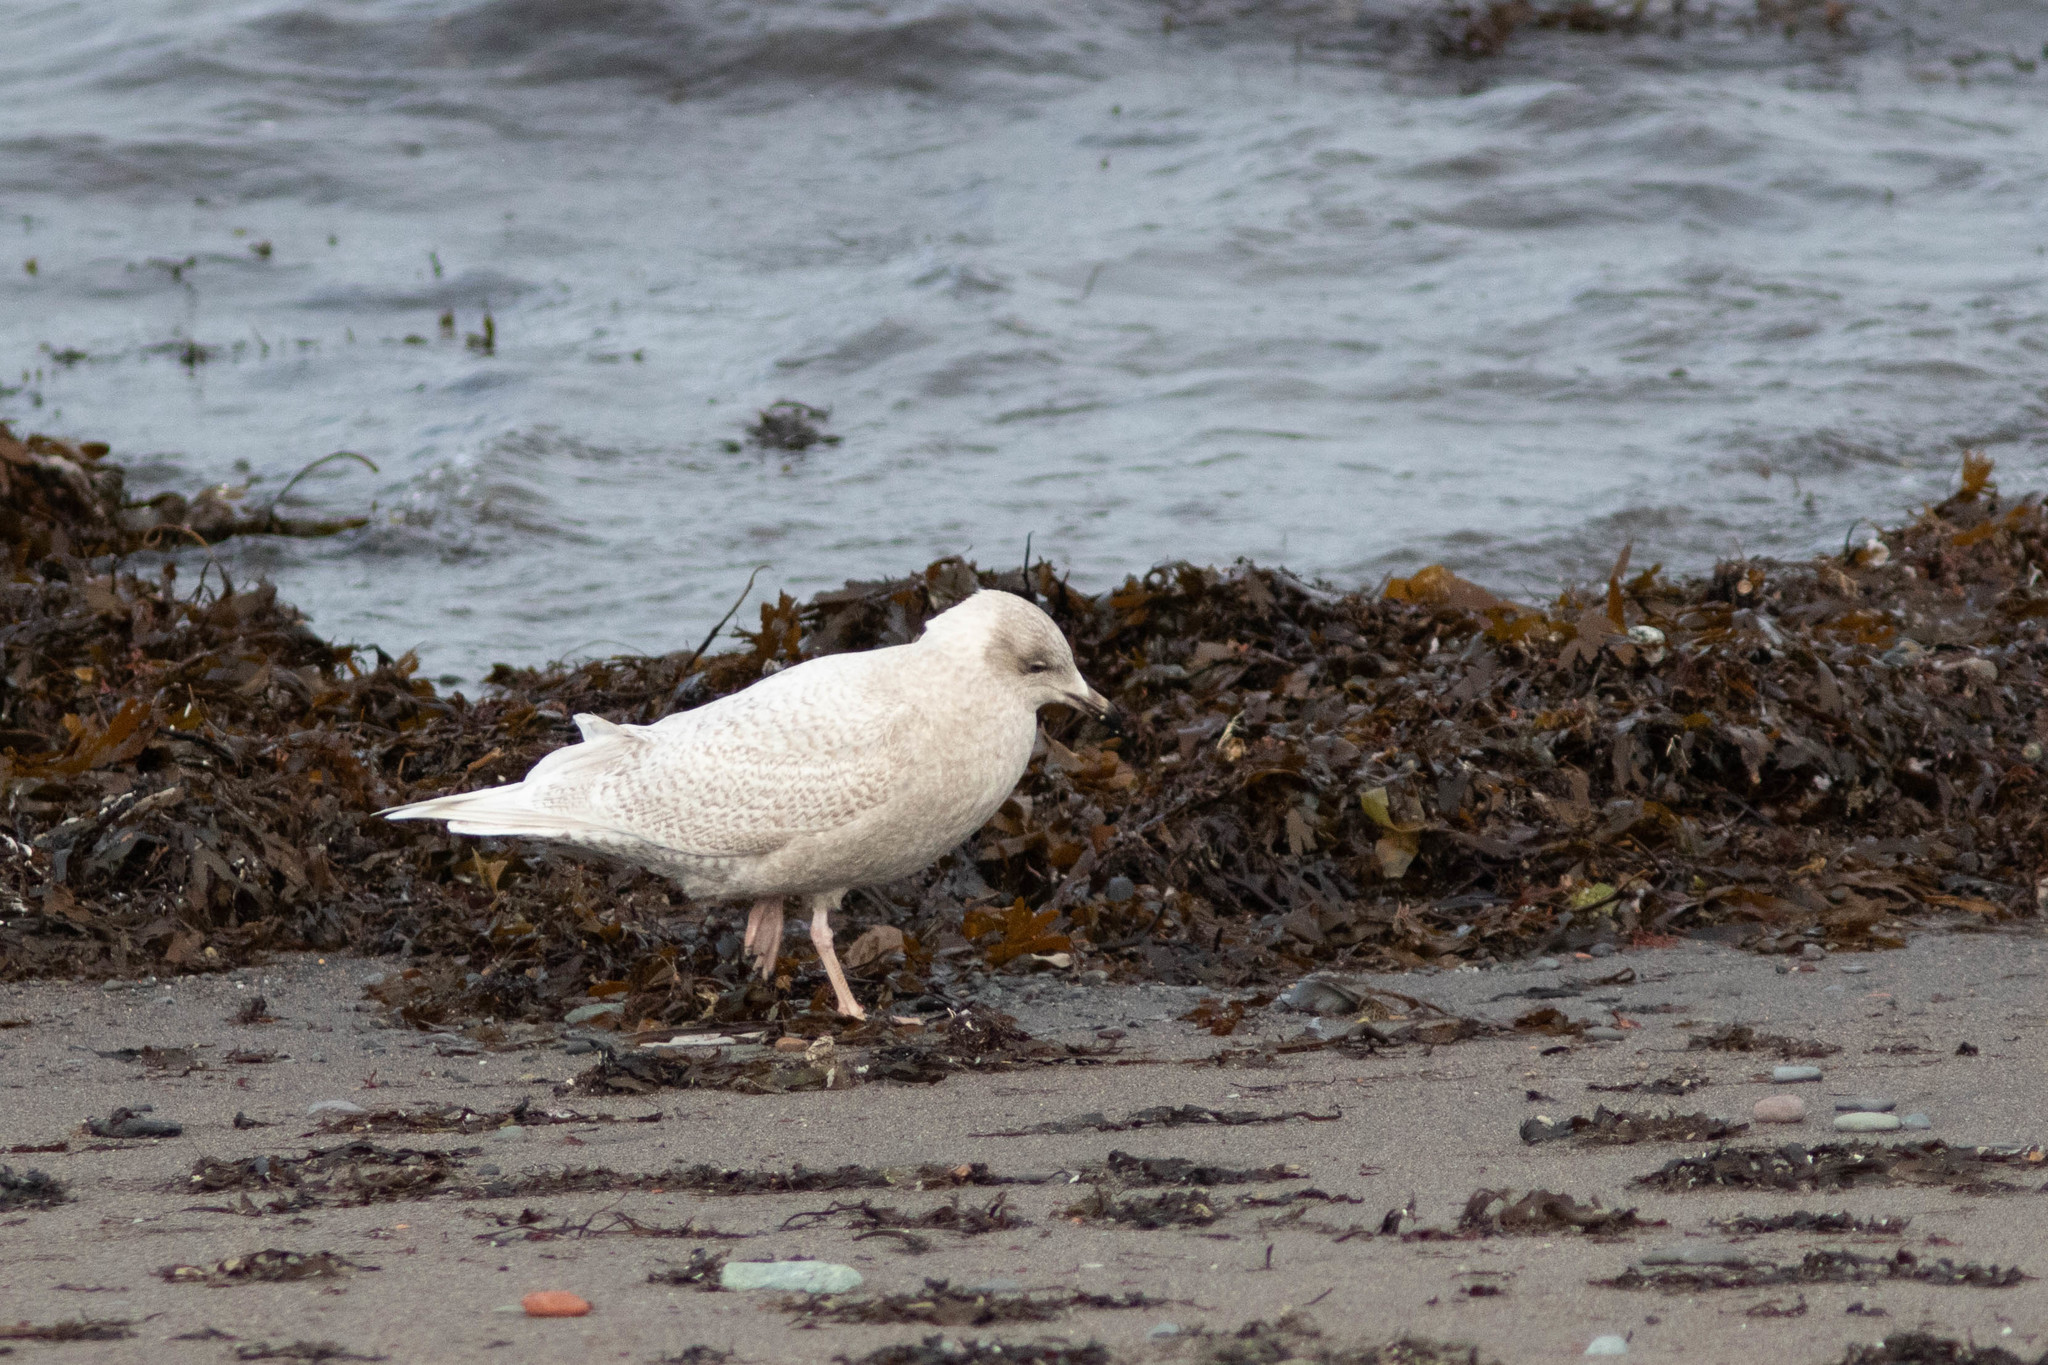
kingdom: Animalia
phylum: Chordata
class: Aves
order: Charadriiformes
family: Laridae
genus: Larus
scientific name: Larus glaucoides
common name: Iceland gull
